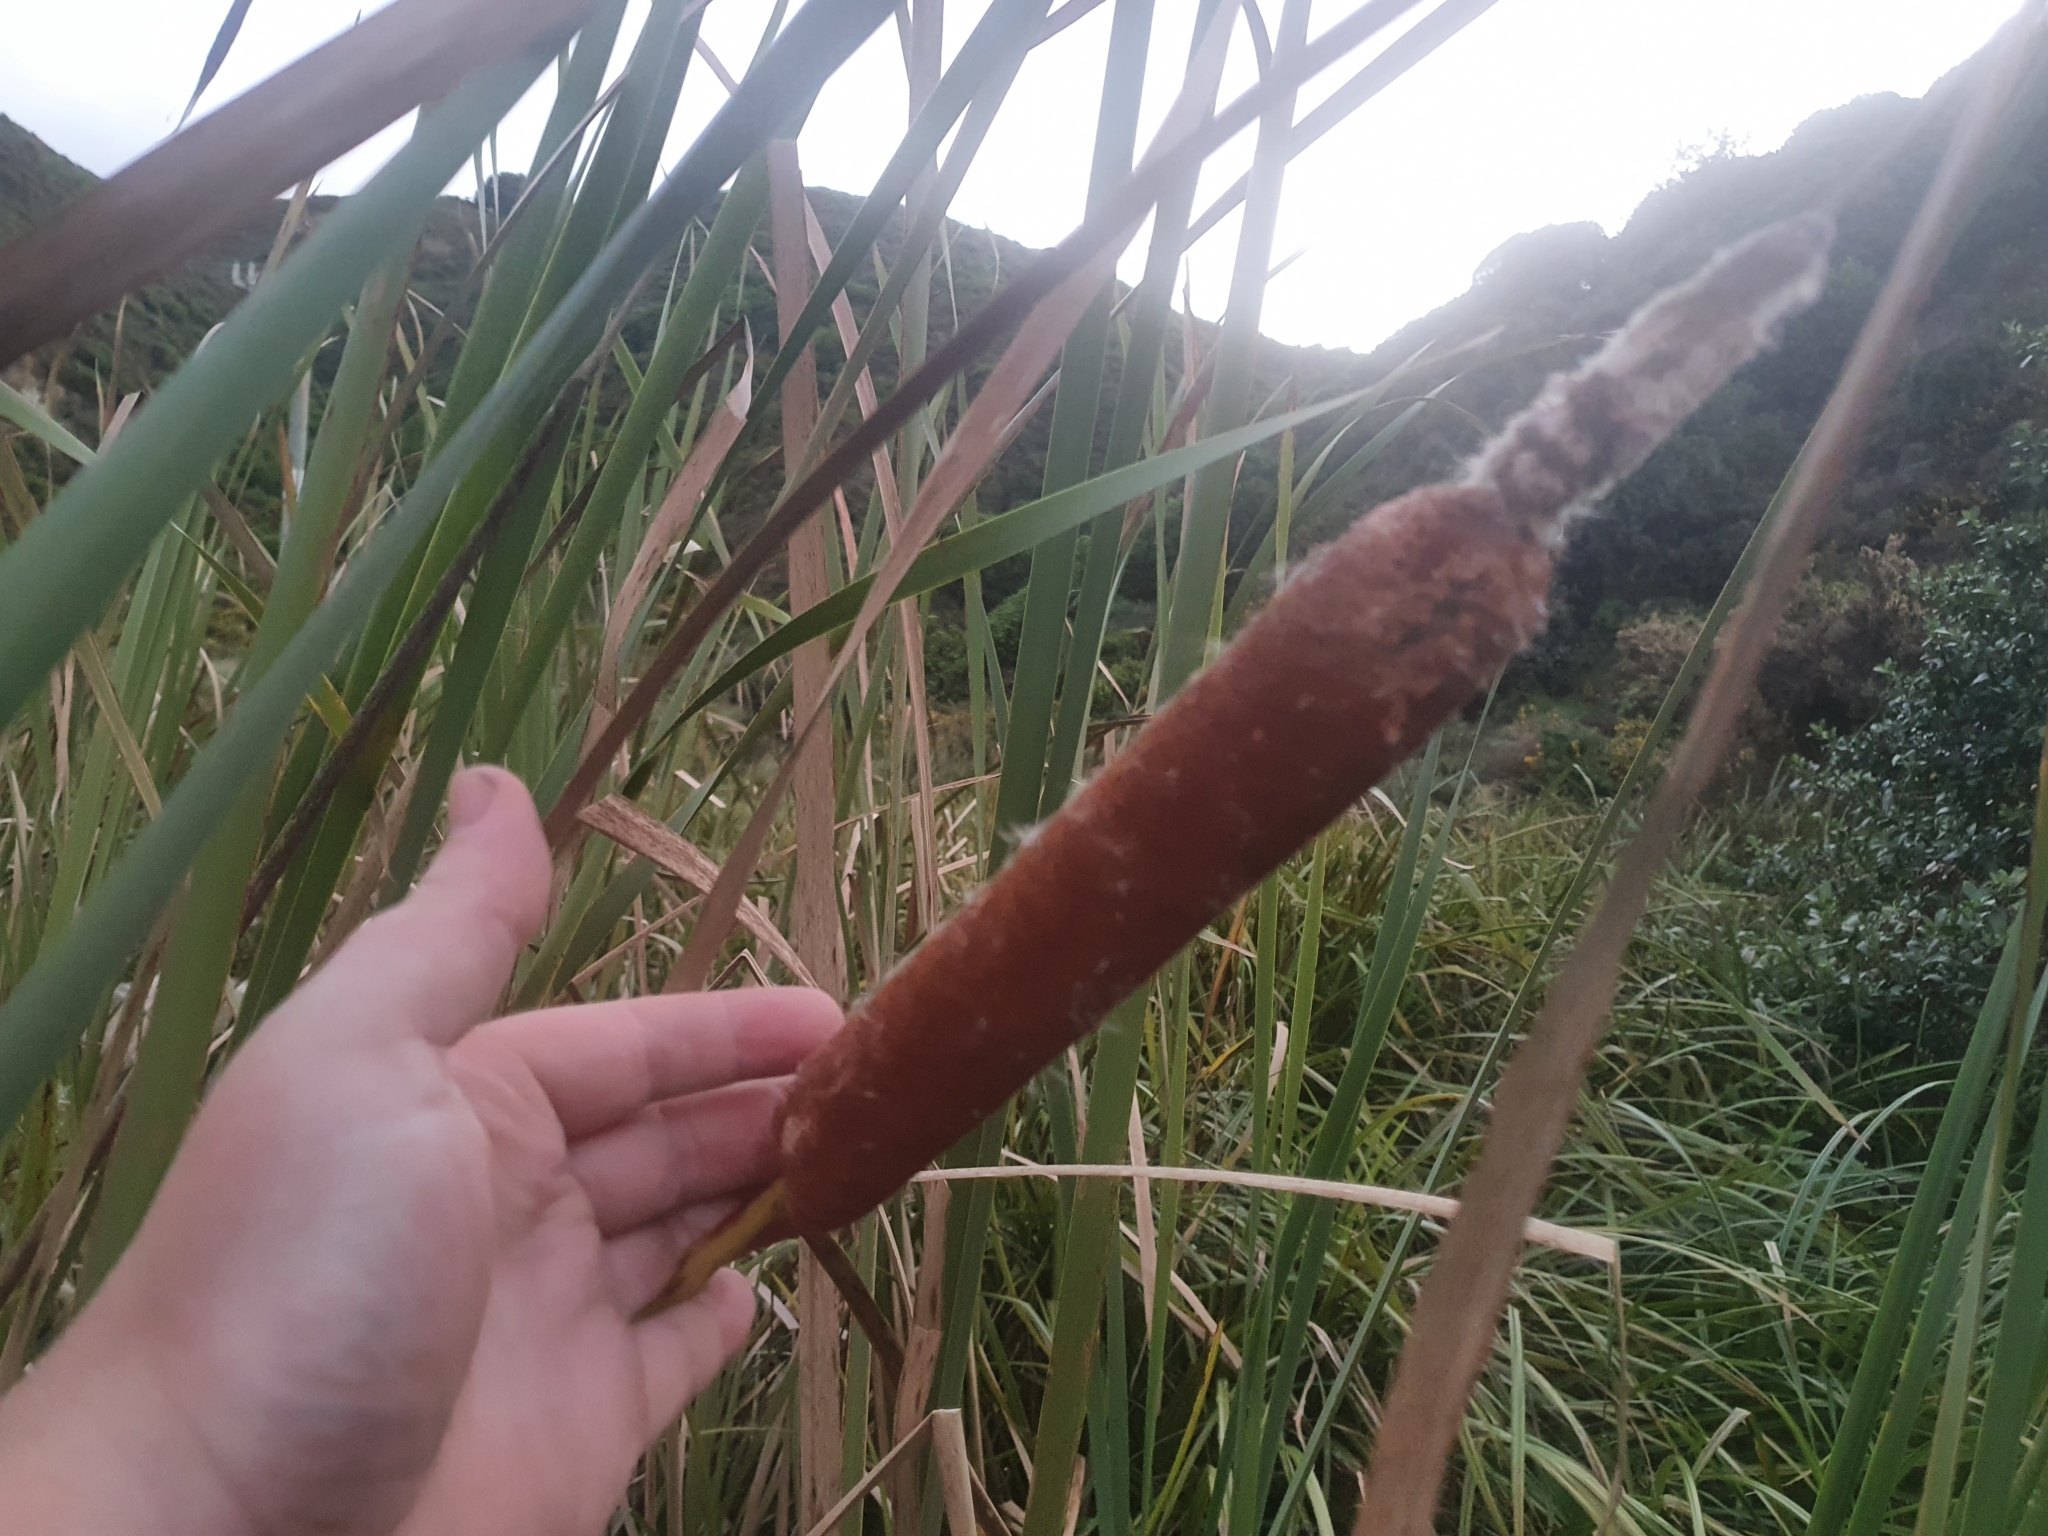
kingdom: Plantae
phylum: Tracheophyta
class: Liliopsida
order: Poales
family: Typhaceae
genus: Typha
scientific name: Typha orientalis
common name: Bullrush
